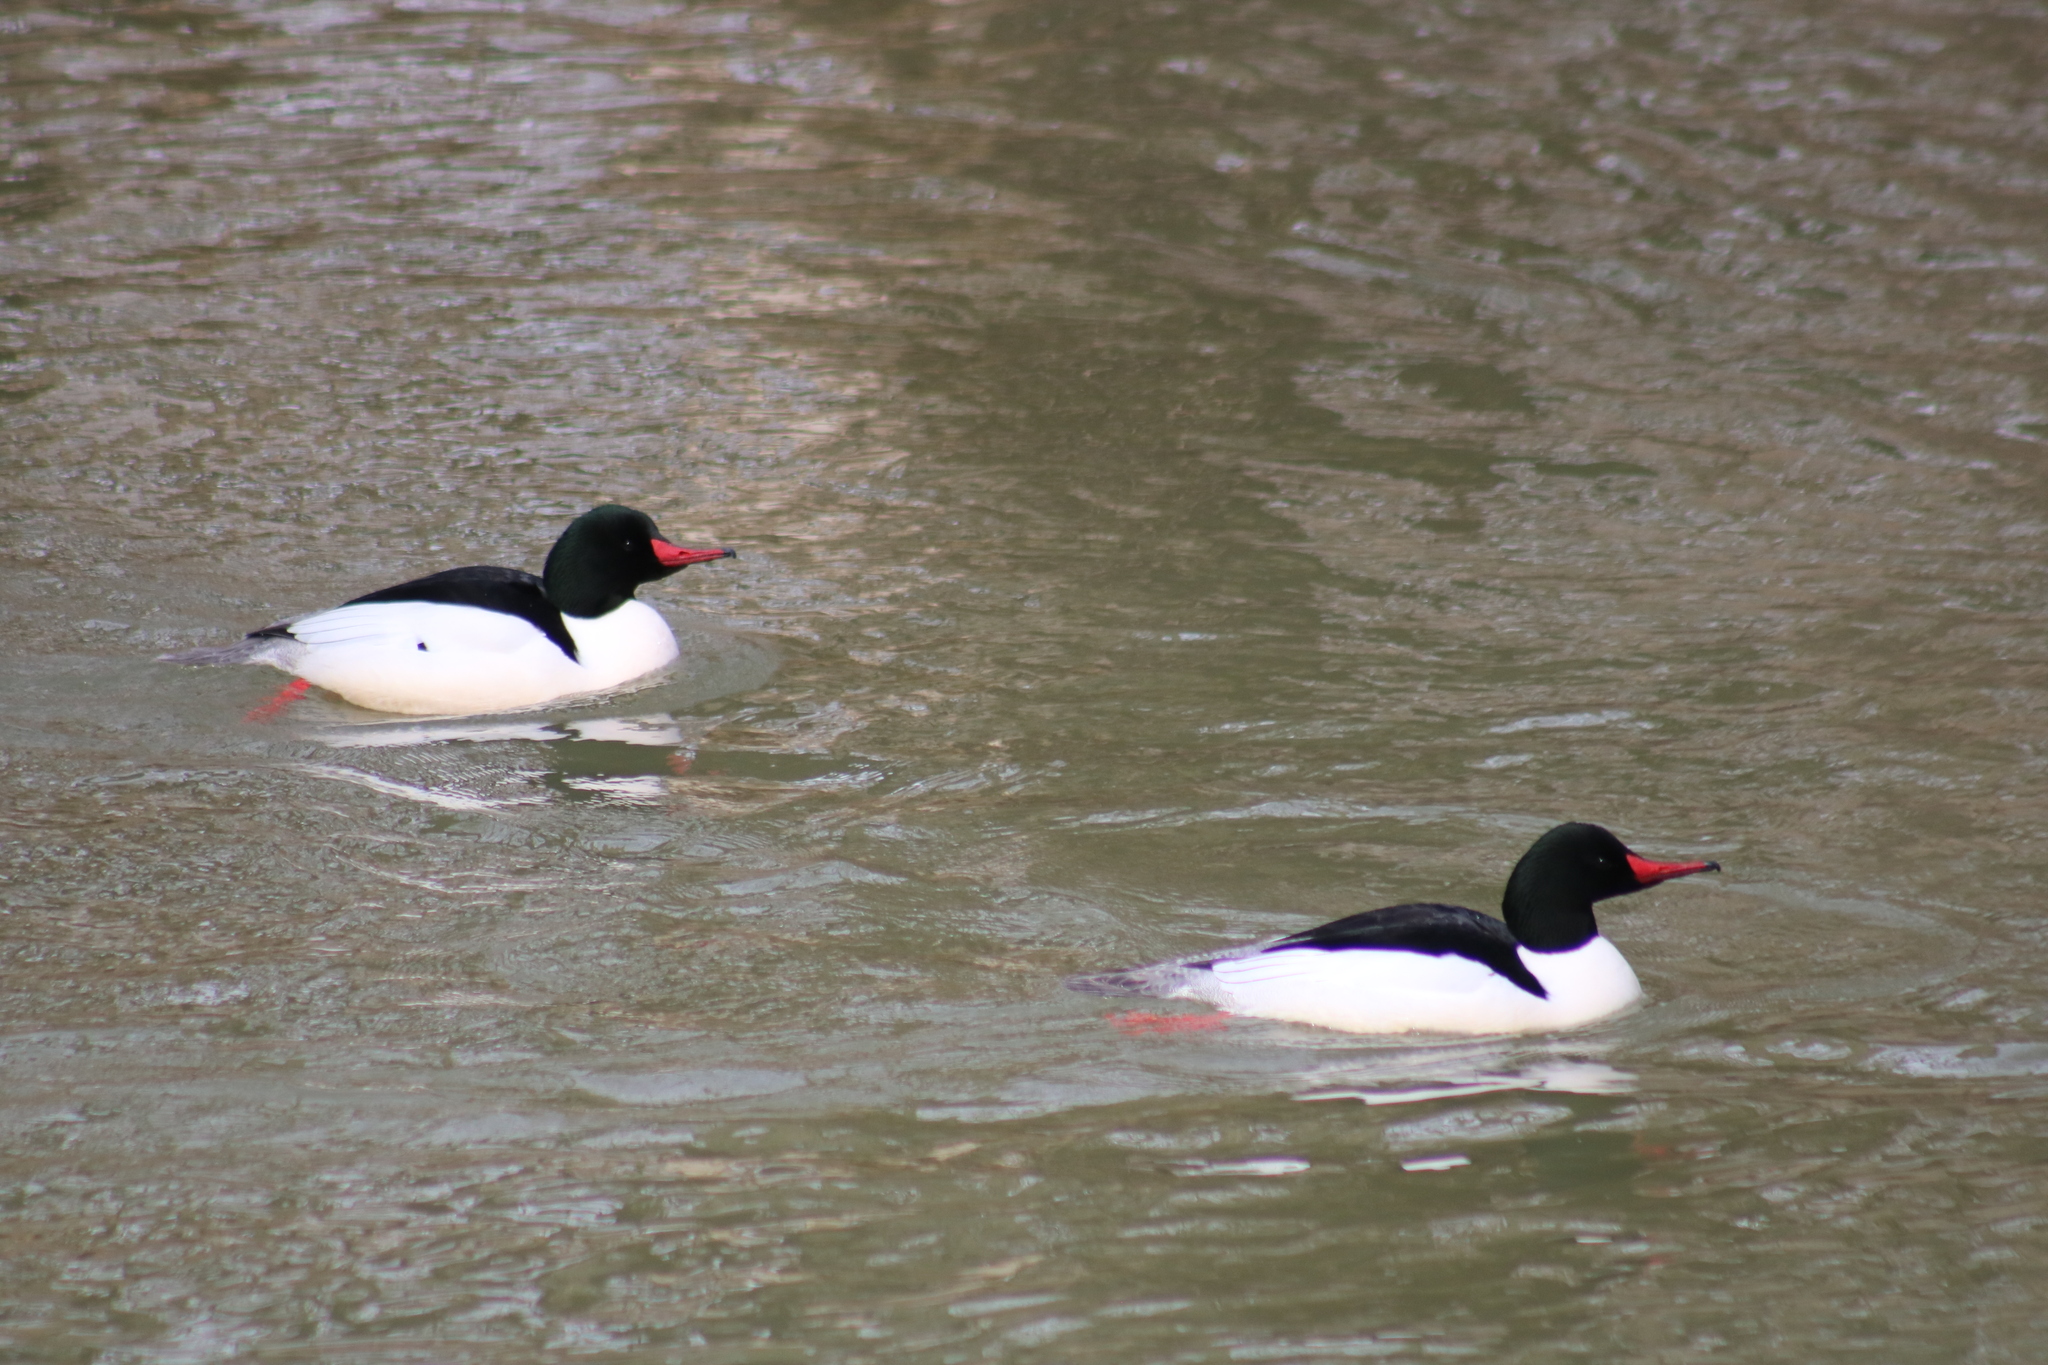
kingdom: Animalia
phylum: Chordata
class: Aves
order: Anseriformes
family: Anatidae
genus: Mergus
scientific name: Mergus merganser
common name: Common merganser
